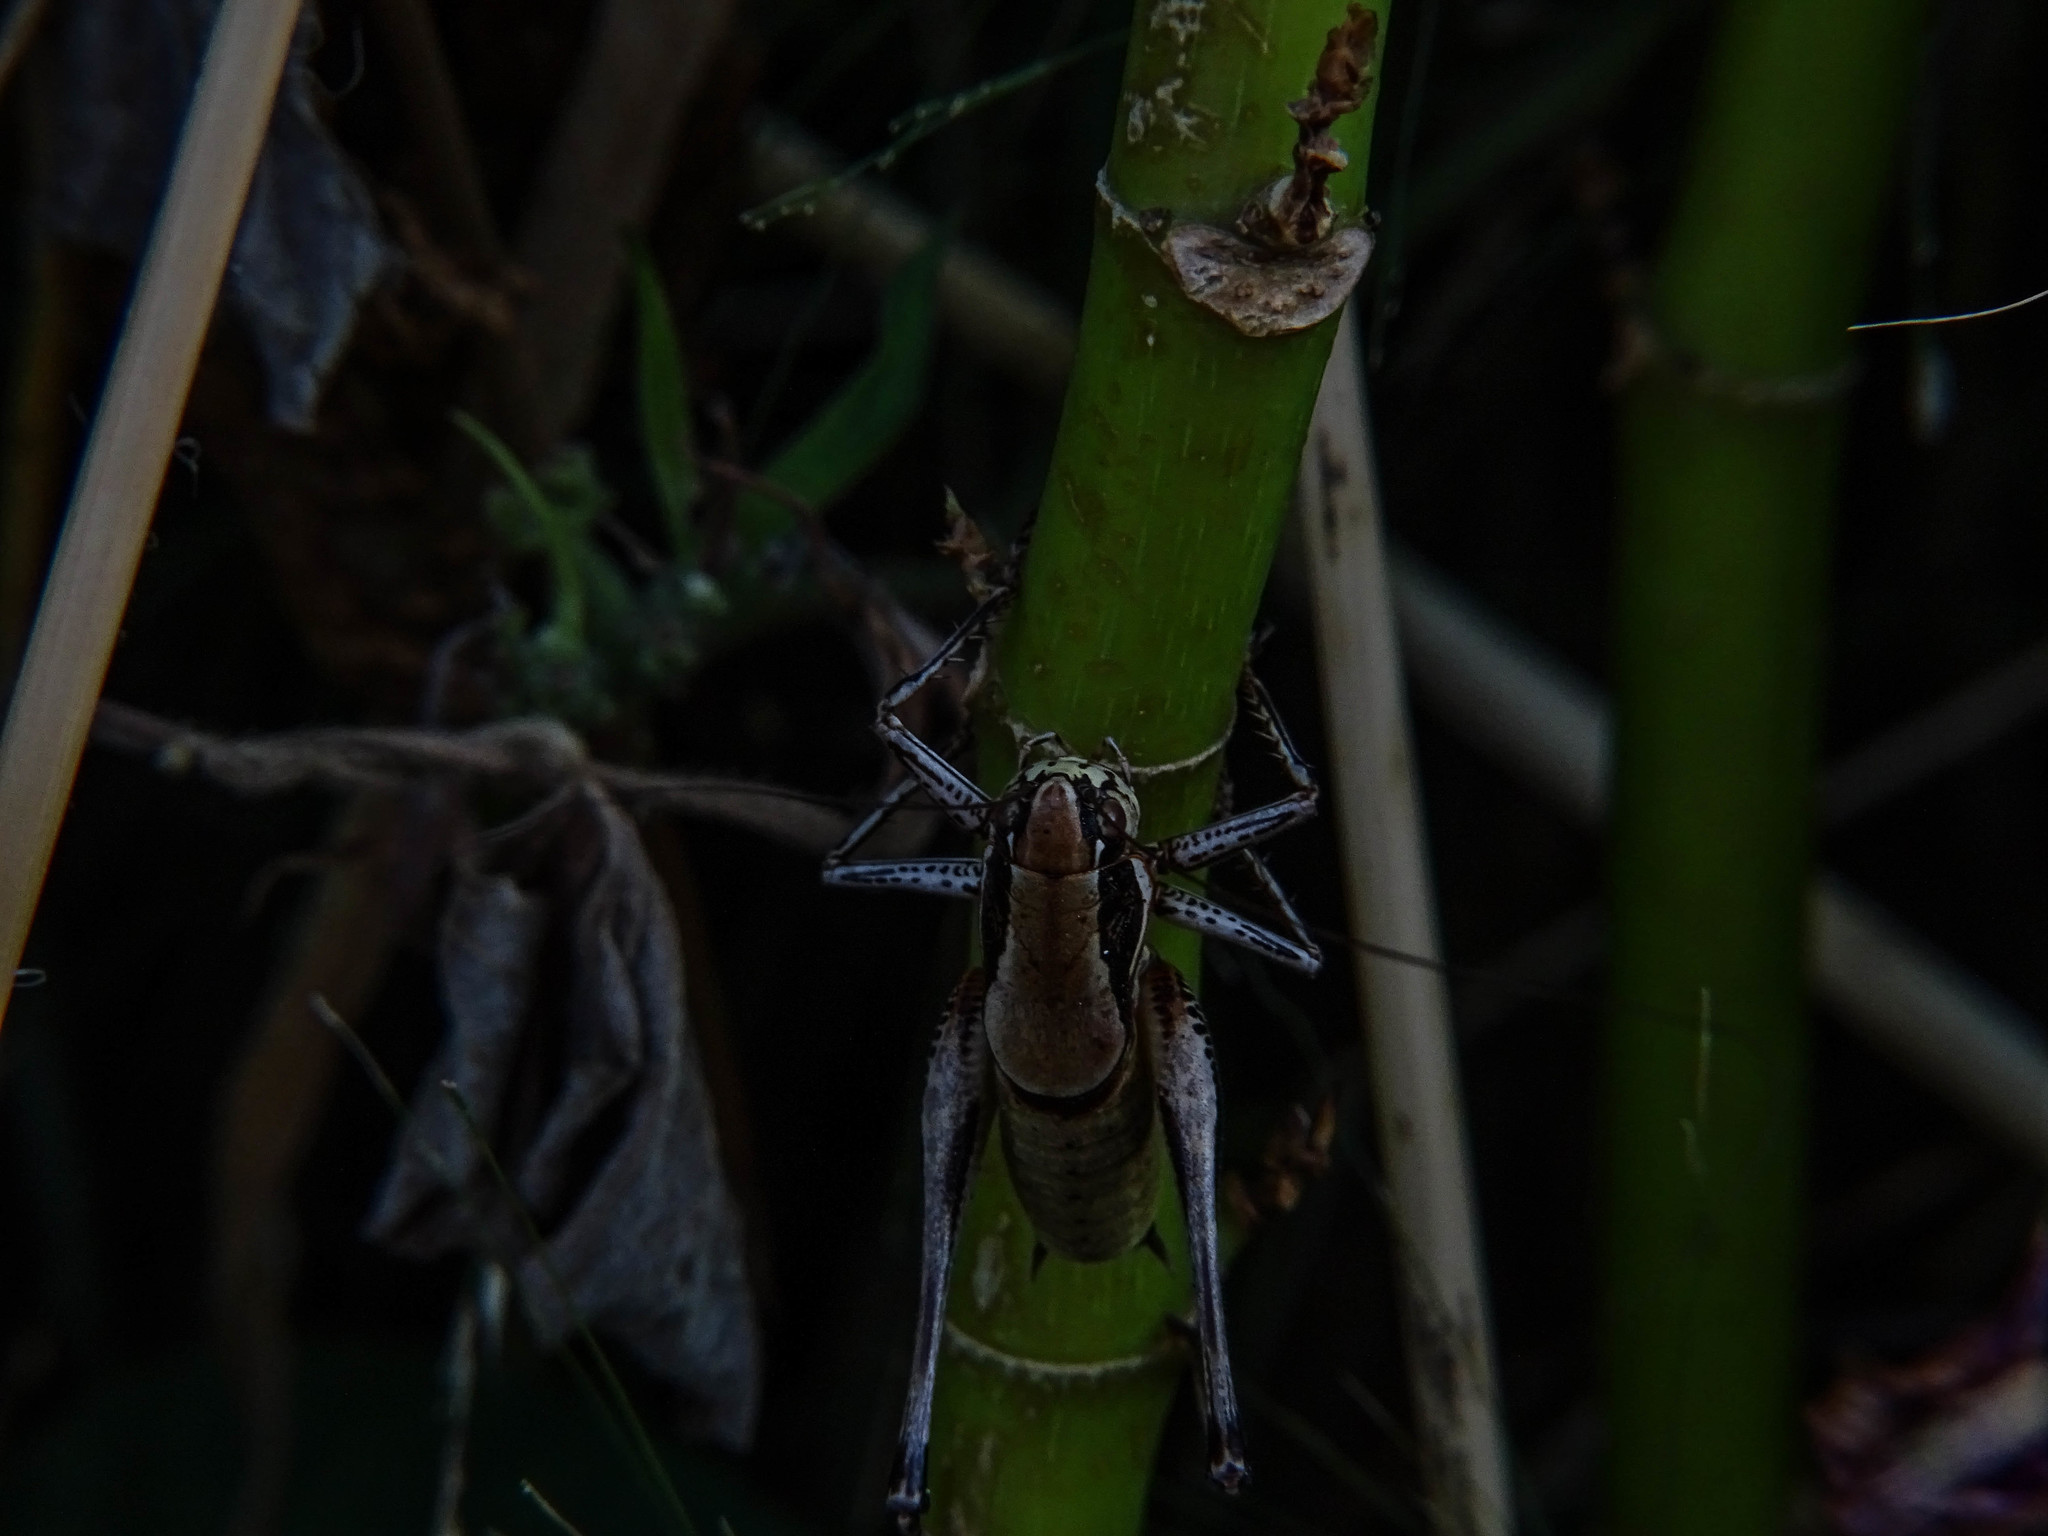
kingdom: Animalia
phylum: Arthropoda
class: Insecta
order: Orthoptera
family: Tettigoniidae
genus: Eupholidoptera
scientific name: Eupholidoptera smyrnensis
